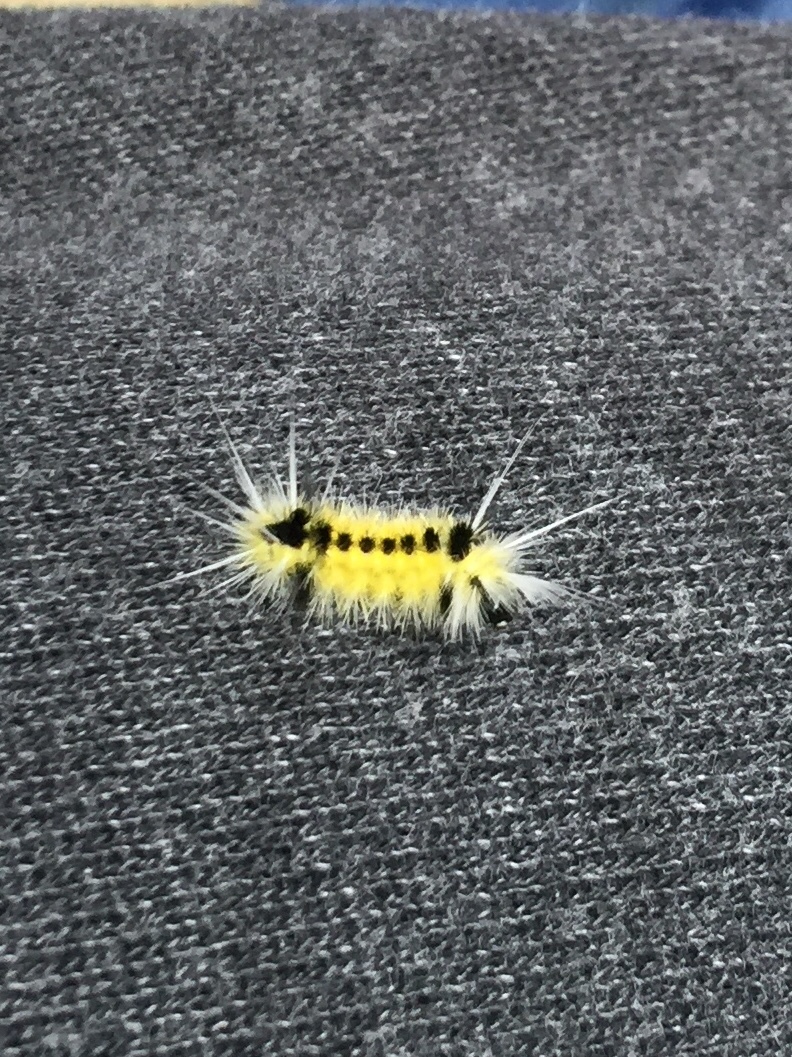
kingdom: Animalia
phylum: Arthropoda
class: Insecta
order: Lepidoptera
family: Erebidae
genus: Lophocampa
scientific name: Lophocampa maculata
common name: Spotted tussock moth
